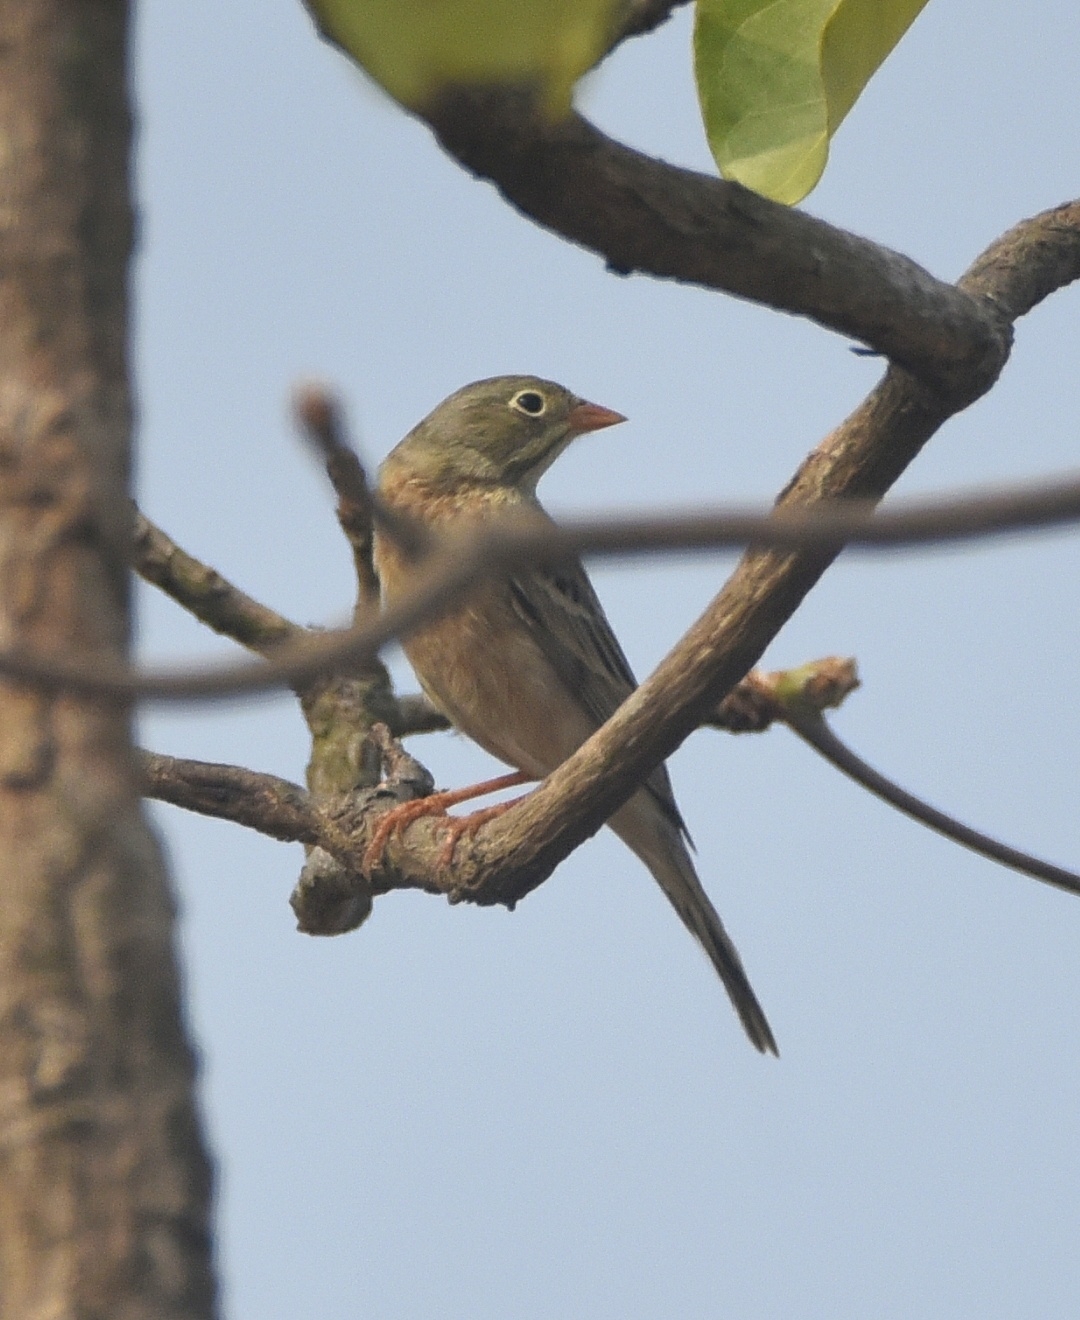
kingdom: Animalia
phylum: Chordata
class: Aves
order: Passeriformes
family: Emberizidae
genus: Emberiza
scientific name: Emberiza buchanani
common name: Grey-necked bunting
